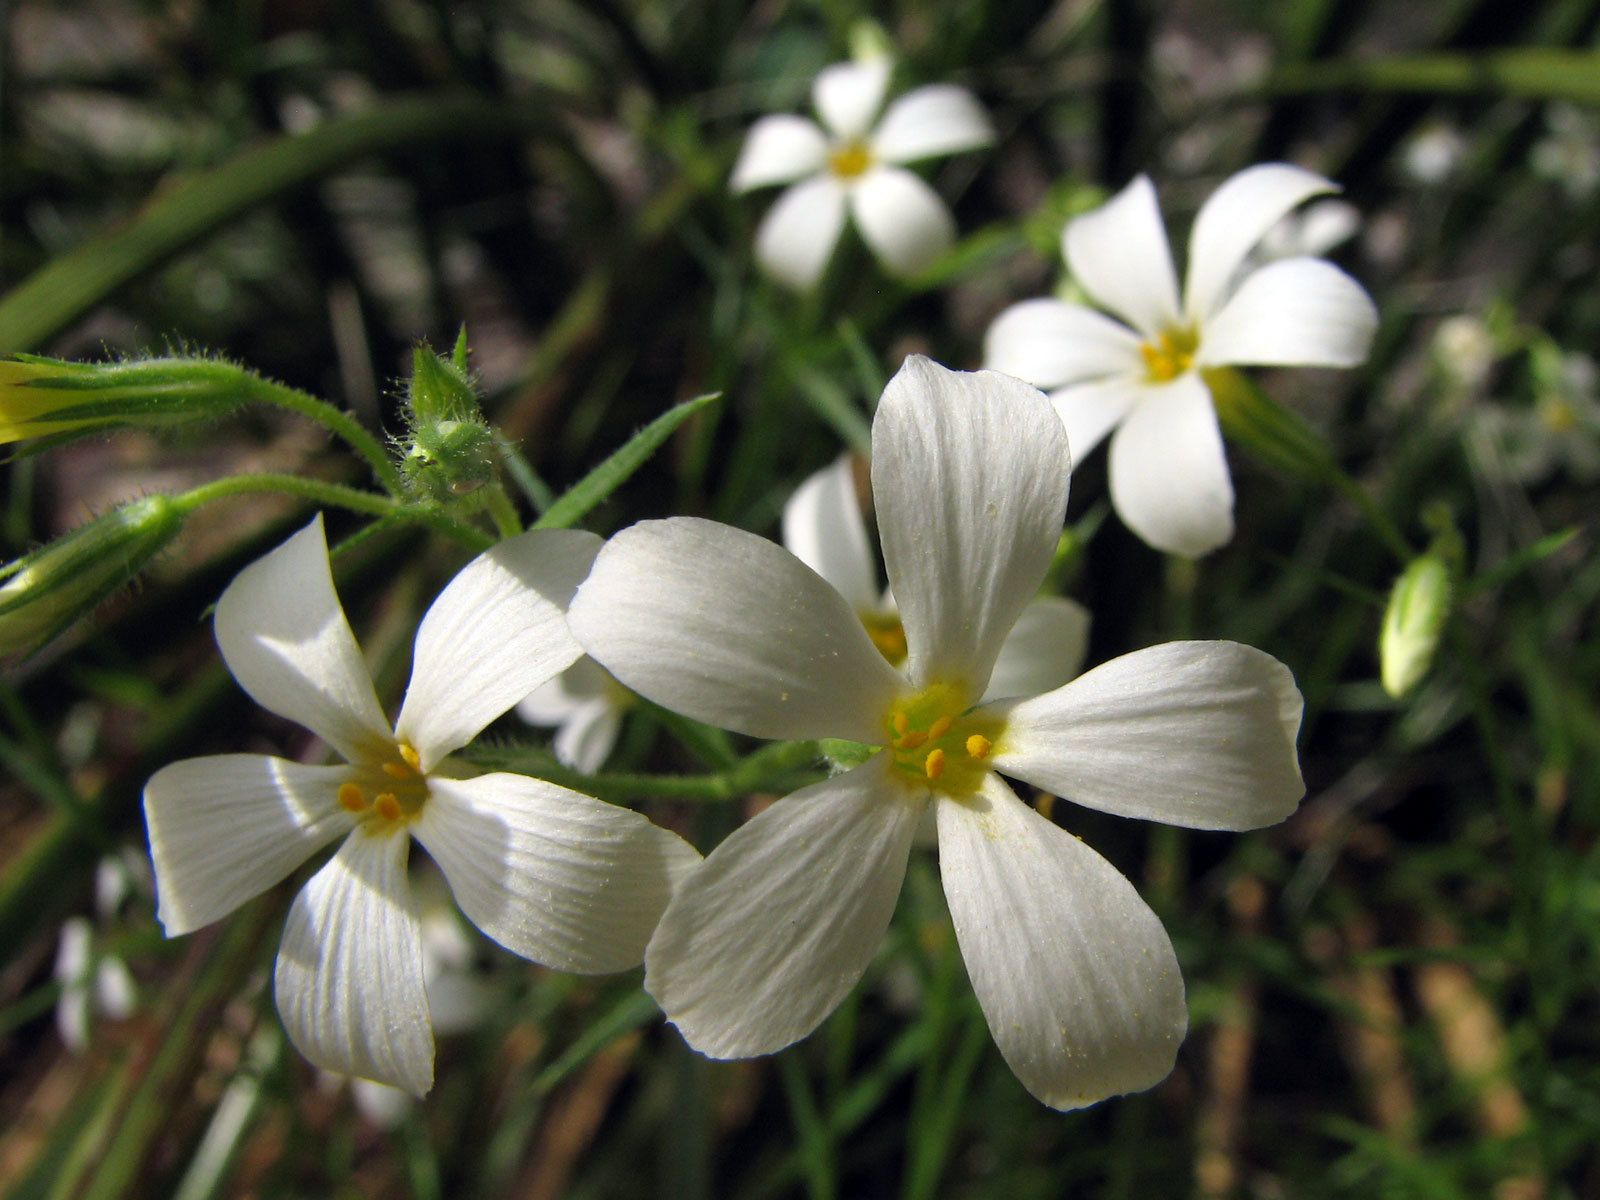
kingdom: Plantae
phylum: Tracheophyta
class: Magnoliopsida
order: Ericales
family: Polemoniaceae
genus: Phlox
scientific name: Phlox tenuifolia
